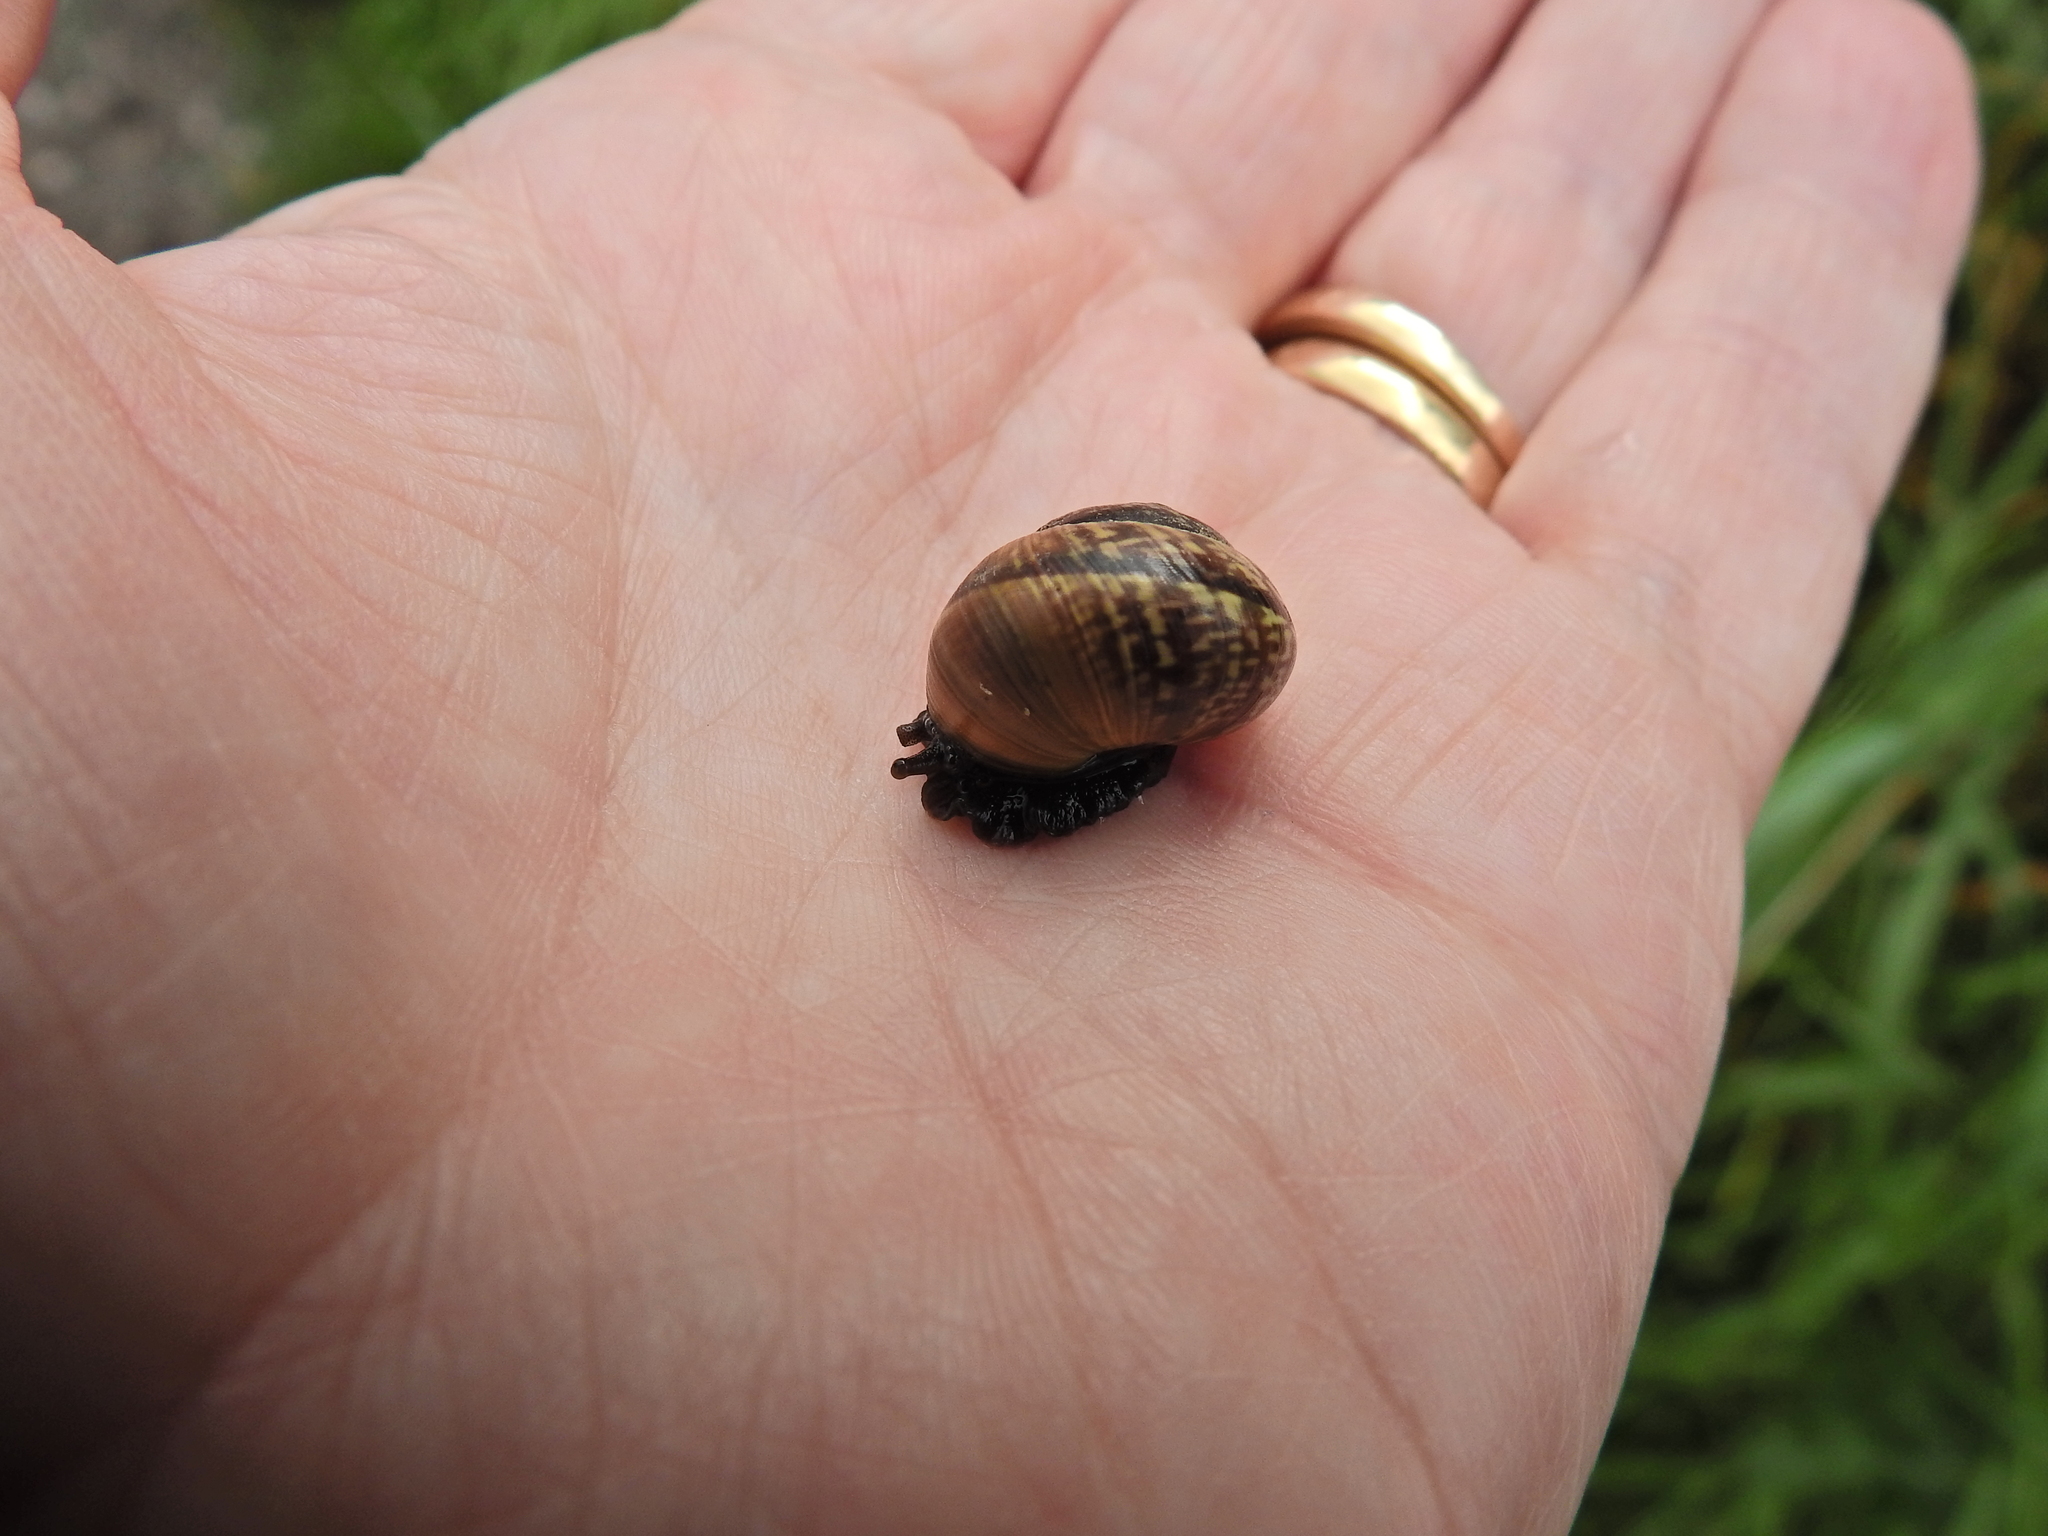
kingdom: Animalia
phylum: Mollusca
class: Gastropoda
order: Stylommatophora
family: Helicidae
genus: Arianta
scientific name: Arianta arbustorum
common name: Copse snail
